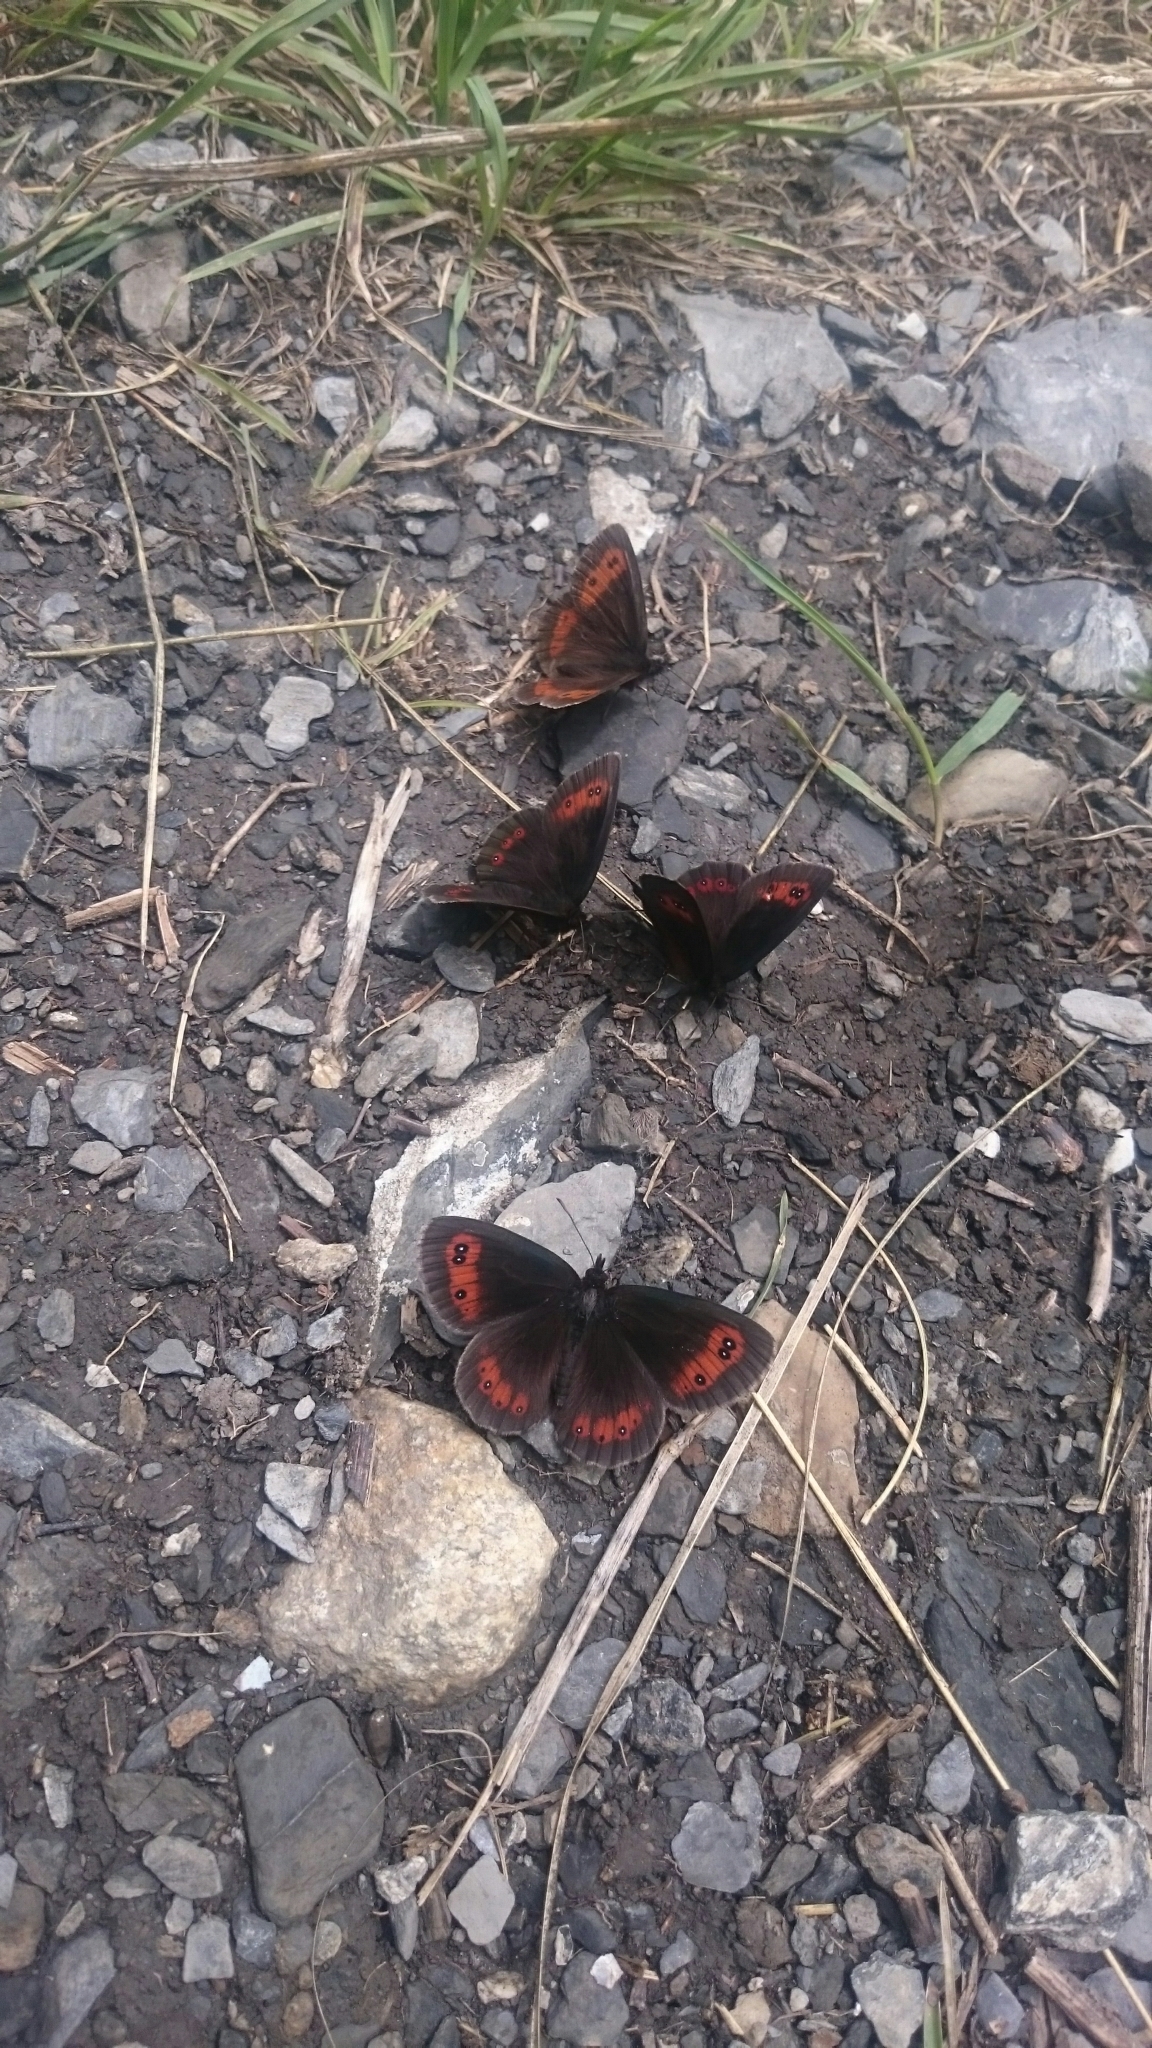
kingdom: Animalia
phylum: Arthropoda
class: Insecta
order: Lepidoptera
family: Nymphalidae
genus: Erebia
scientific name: Erebia aethiops
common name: Scotch argus
